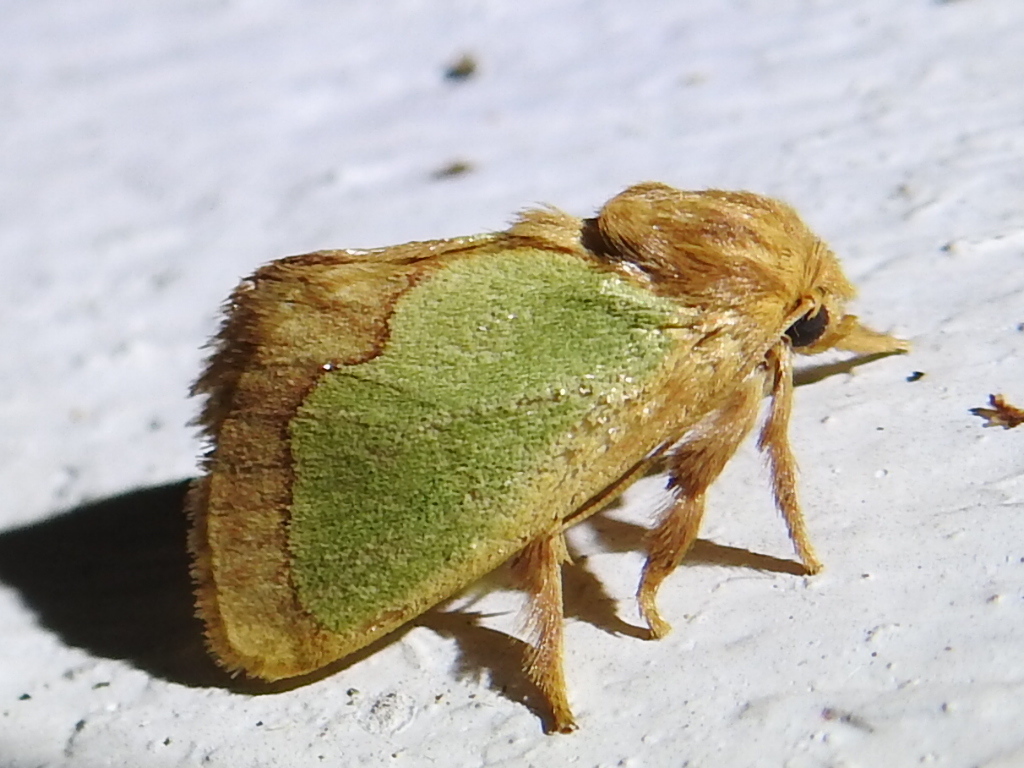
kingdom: Animalia
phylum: Arthropoda
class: Insecta
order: Lepidoptera
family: Limacodidae
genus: Euclea
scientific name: Euclea incisa
